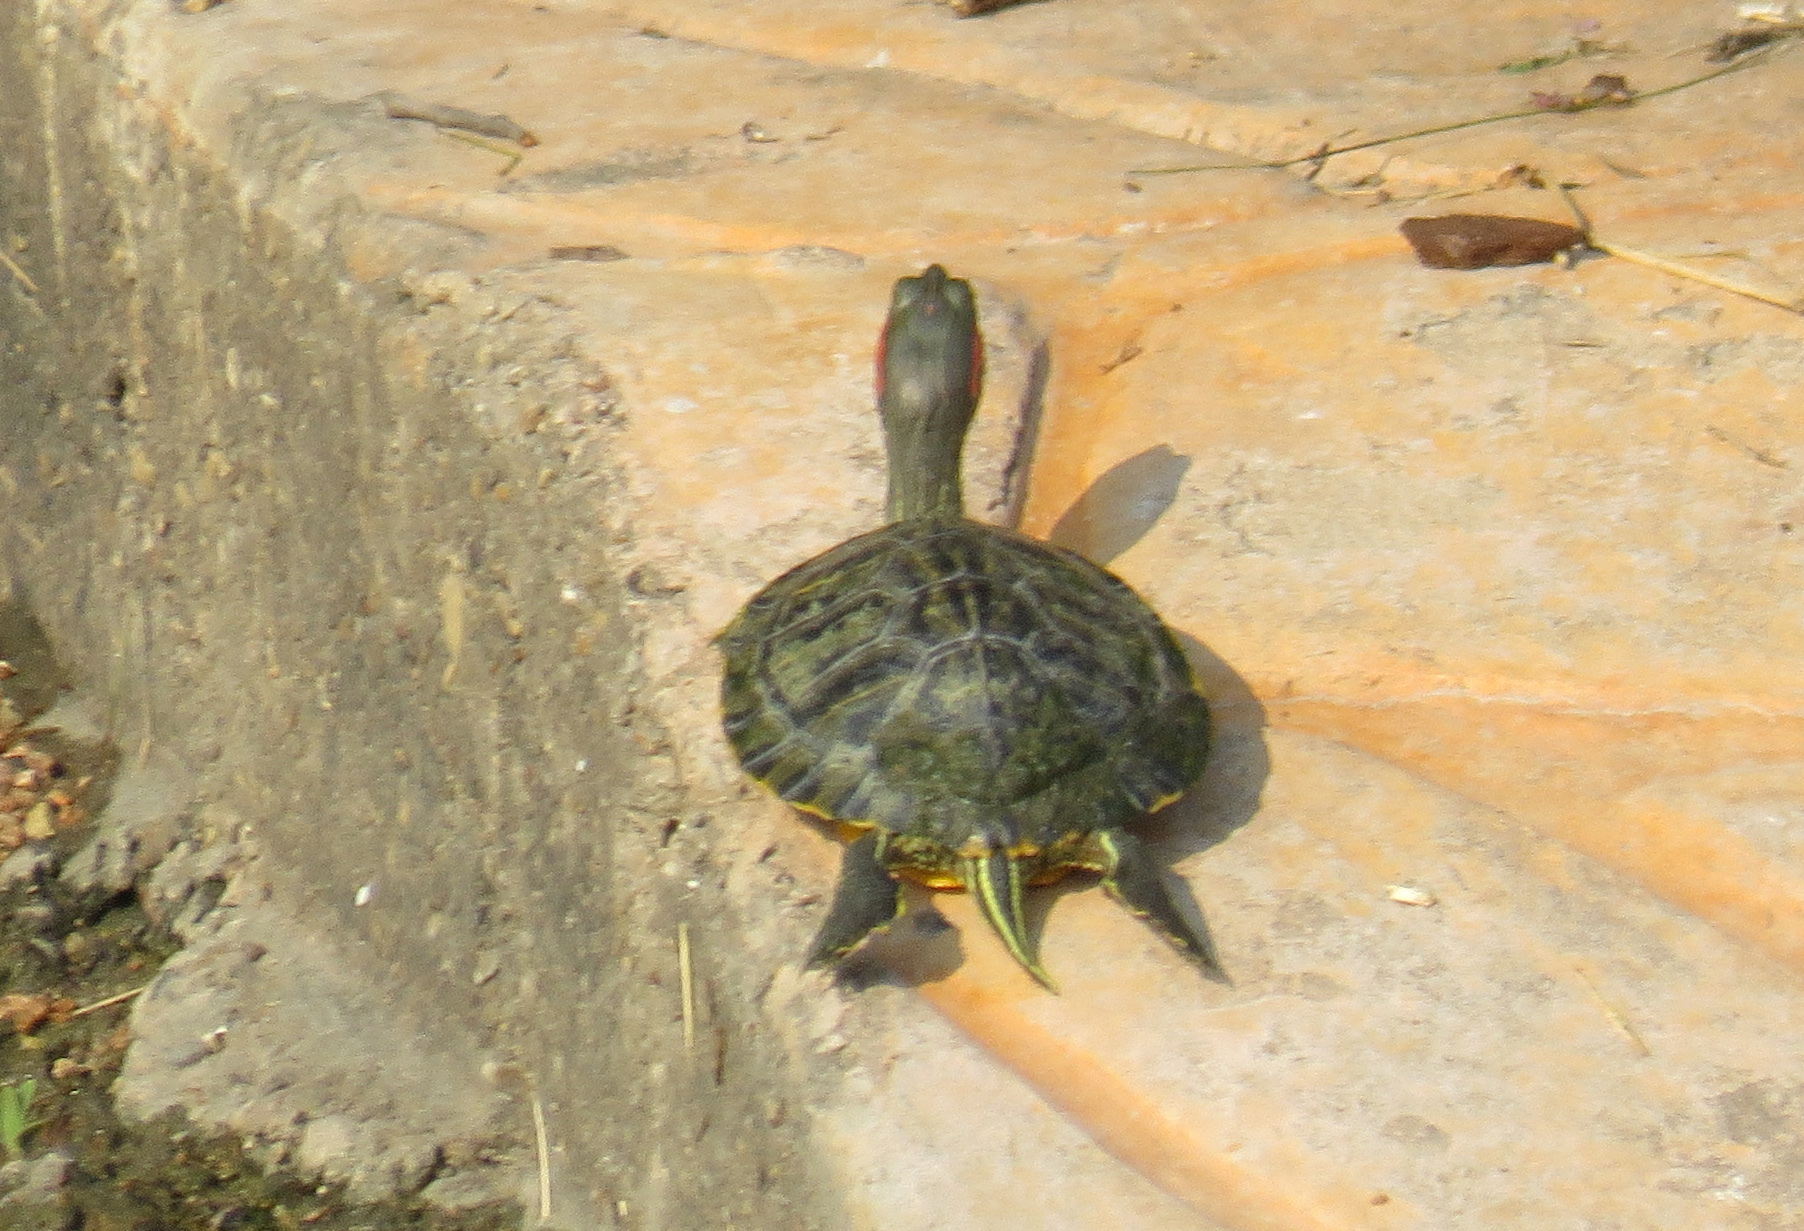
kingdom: Animalia
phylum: Chordata
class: Testudines
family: Emydidae
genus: Trachemys
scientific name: Trachemys scripta
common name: Slider
